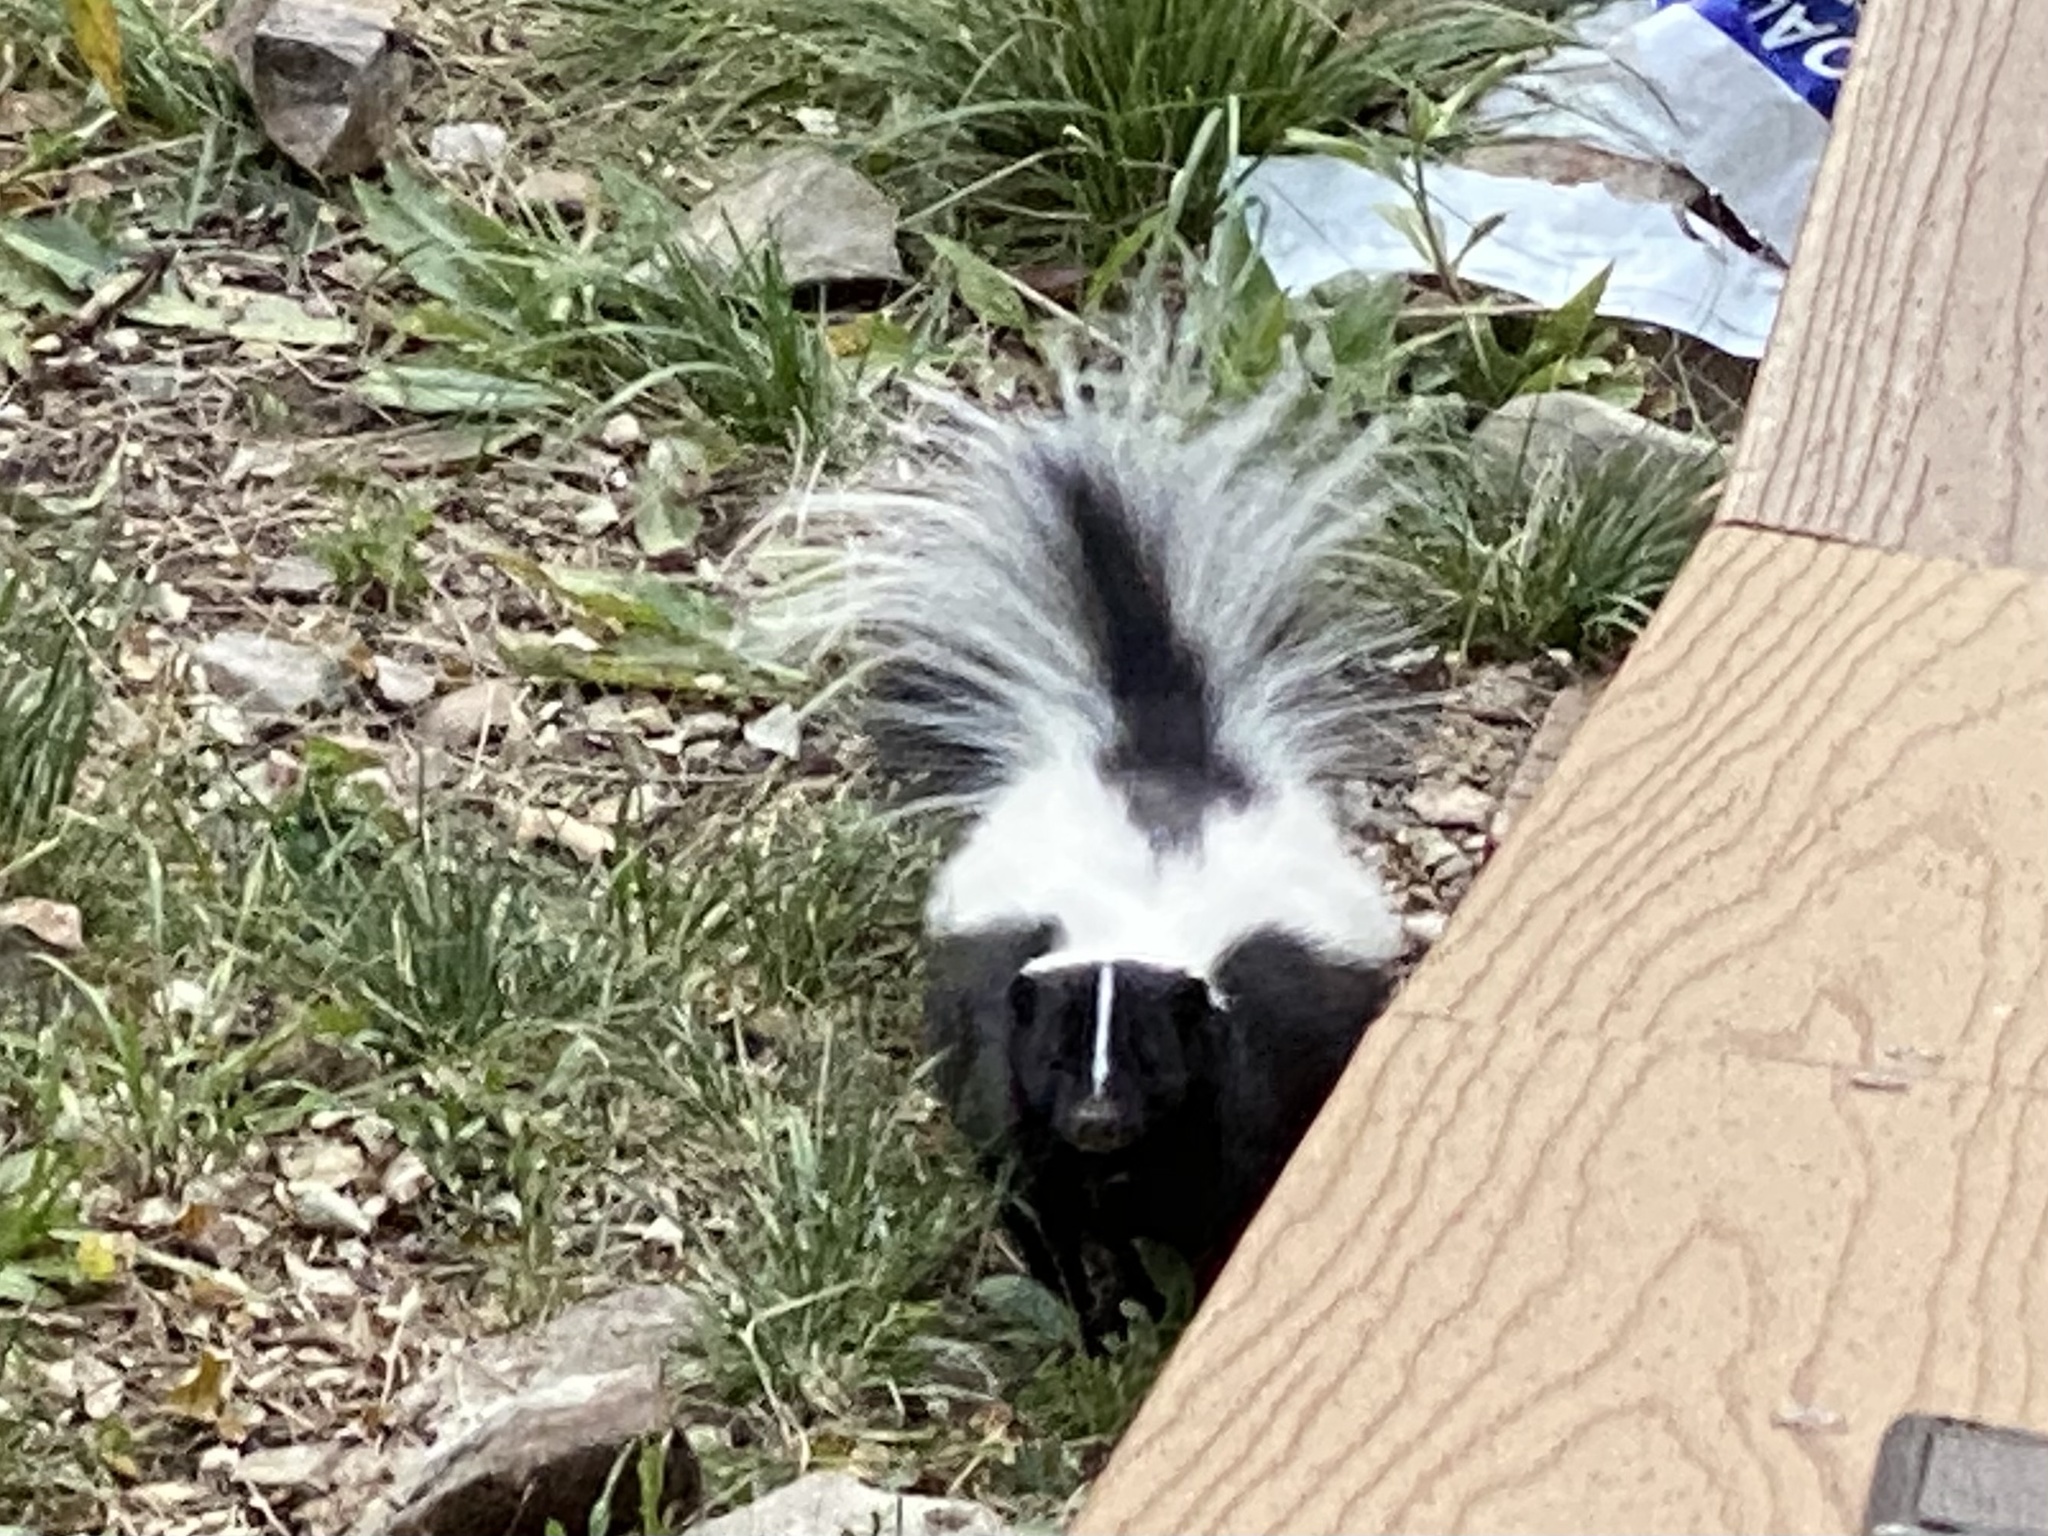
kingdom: Animalia
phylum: Chordata
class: Mammalia
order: Carnivora
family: Mephitidae
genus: Mephitis
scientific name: Mephitis mephitis
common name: Striped skunk
